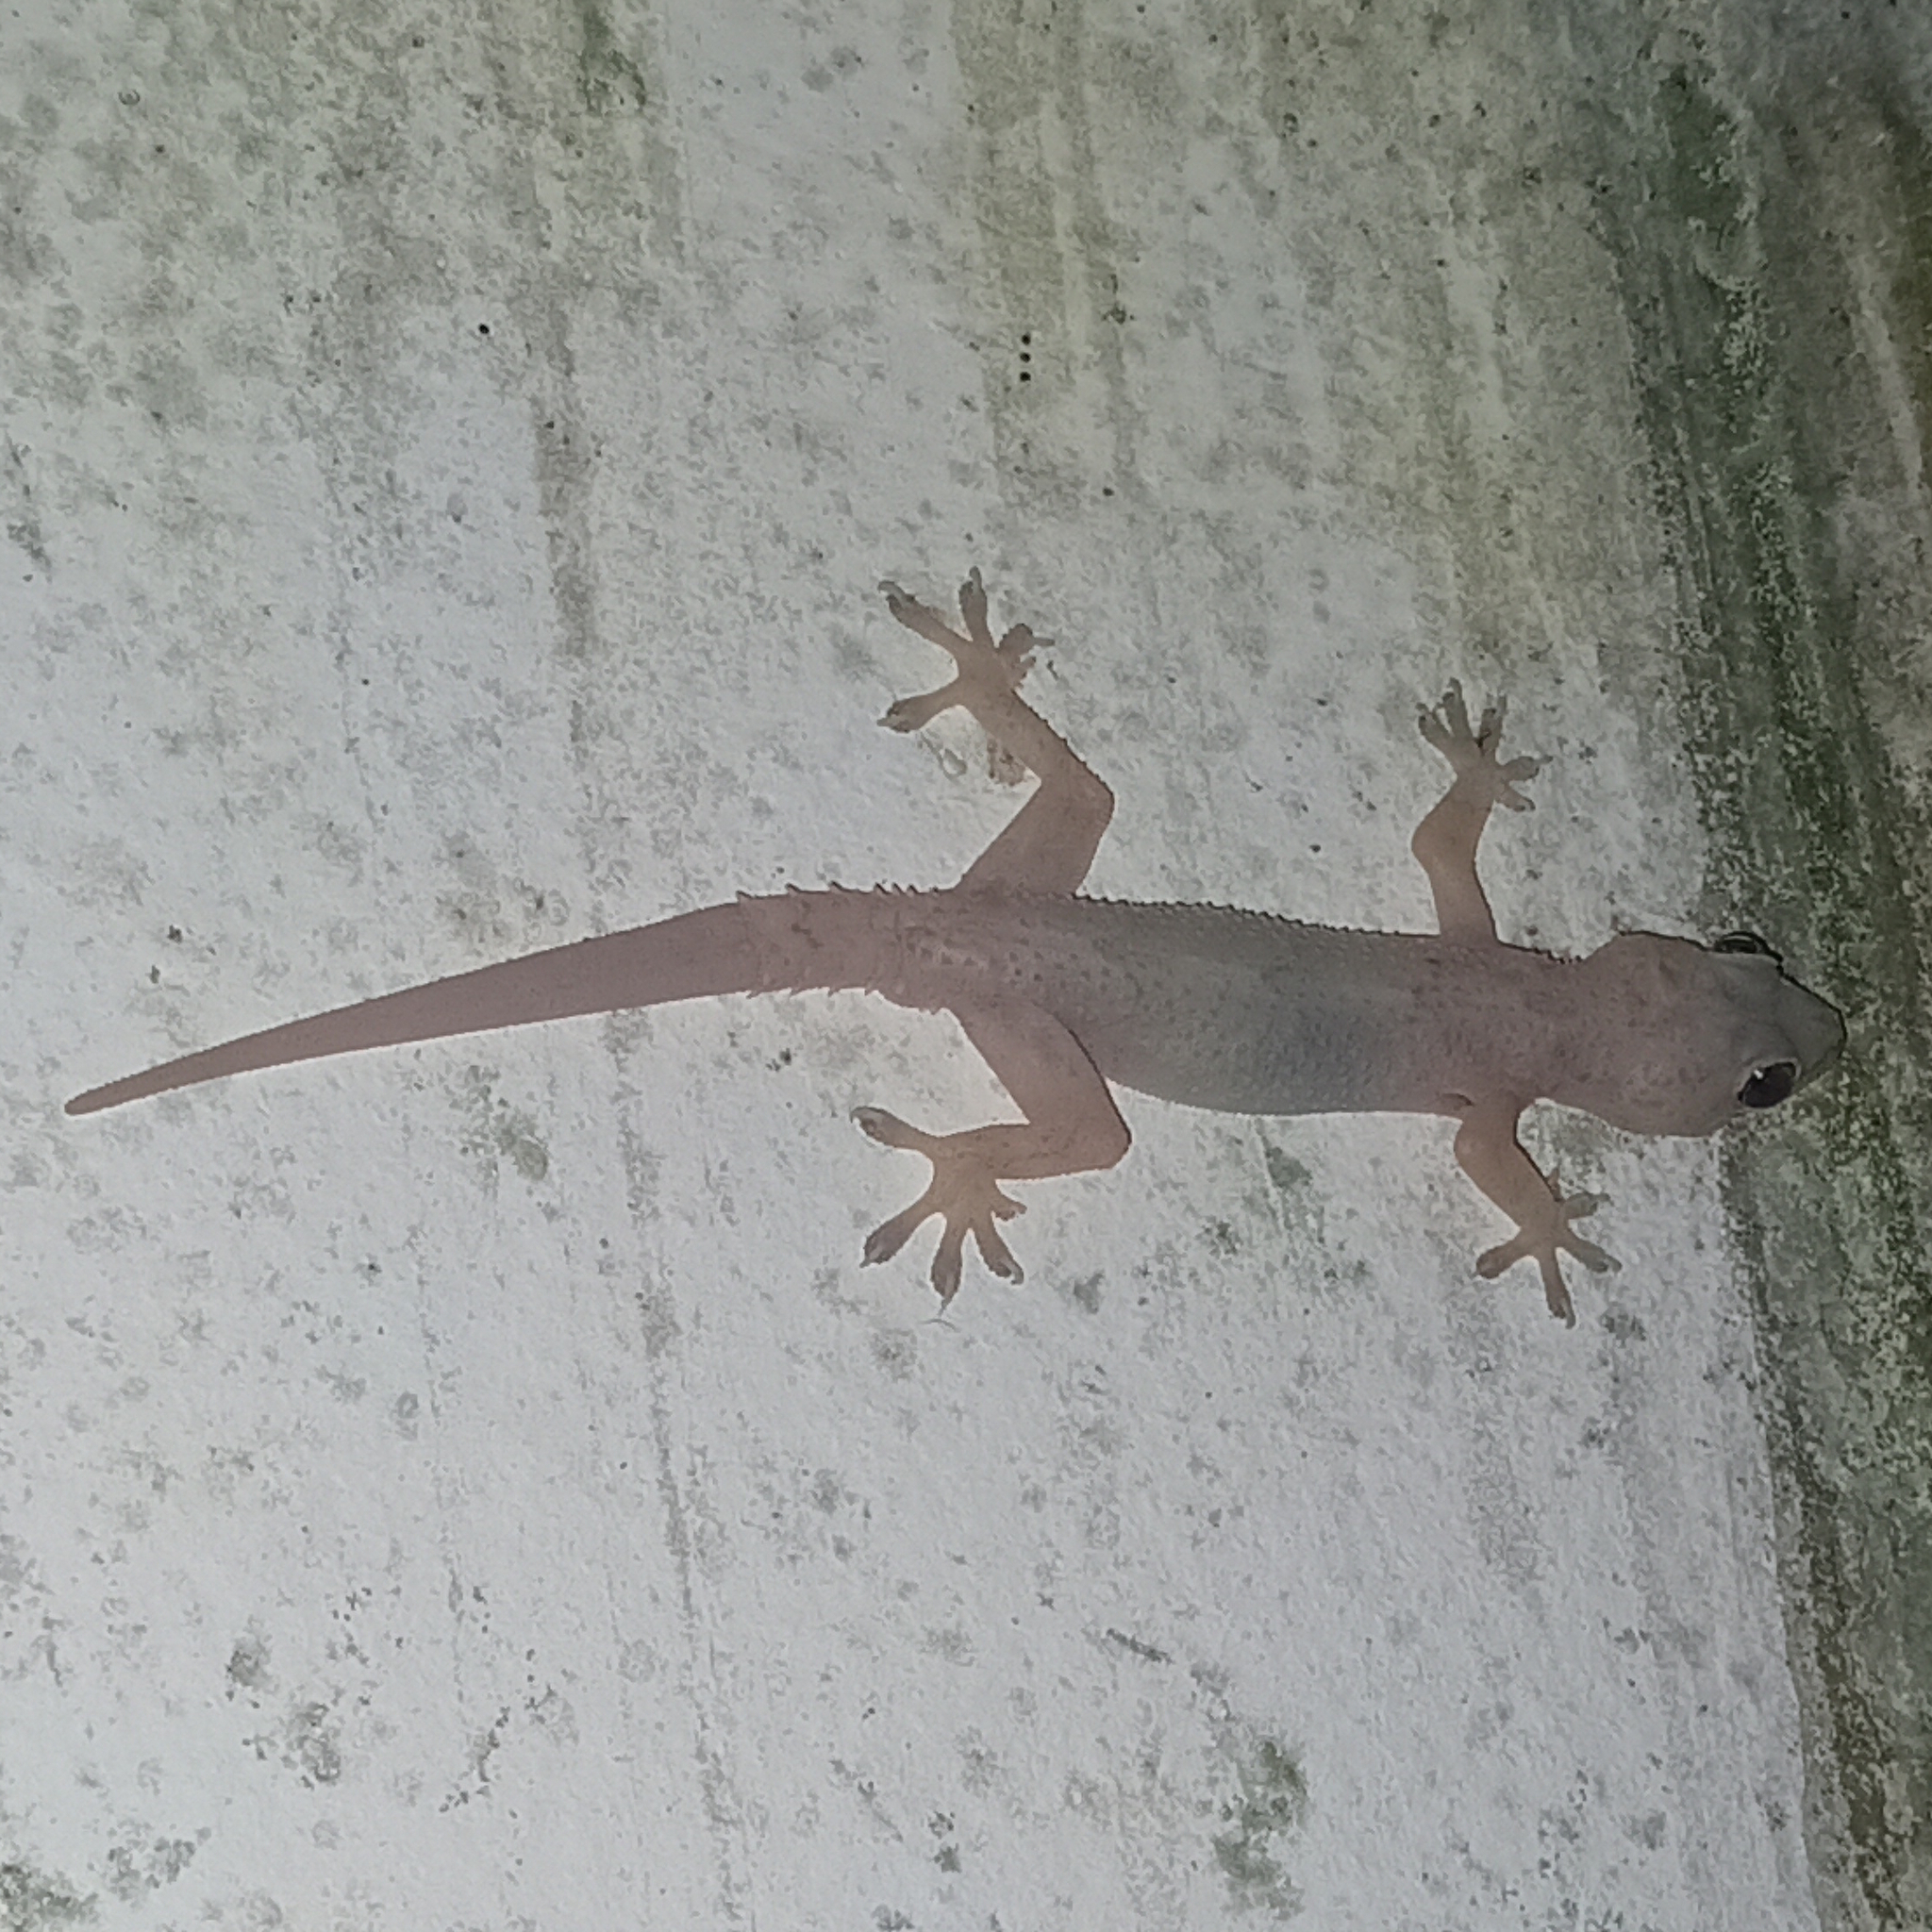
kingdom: Animalia
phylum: Chordata
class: Squamata
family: Gekkonidae
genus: Hemidactylus
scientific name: Hemidactylus mabouia
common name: House gecko
